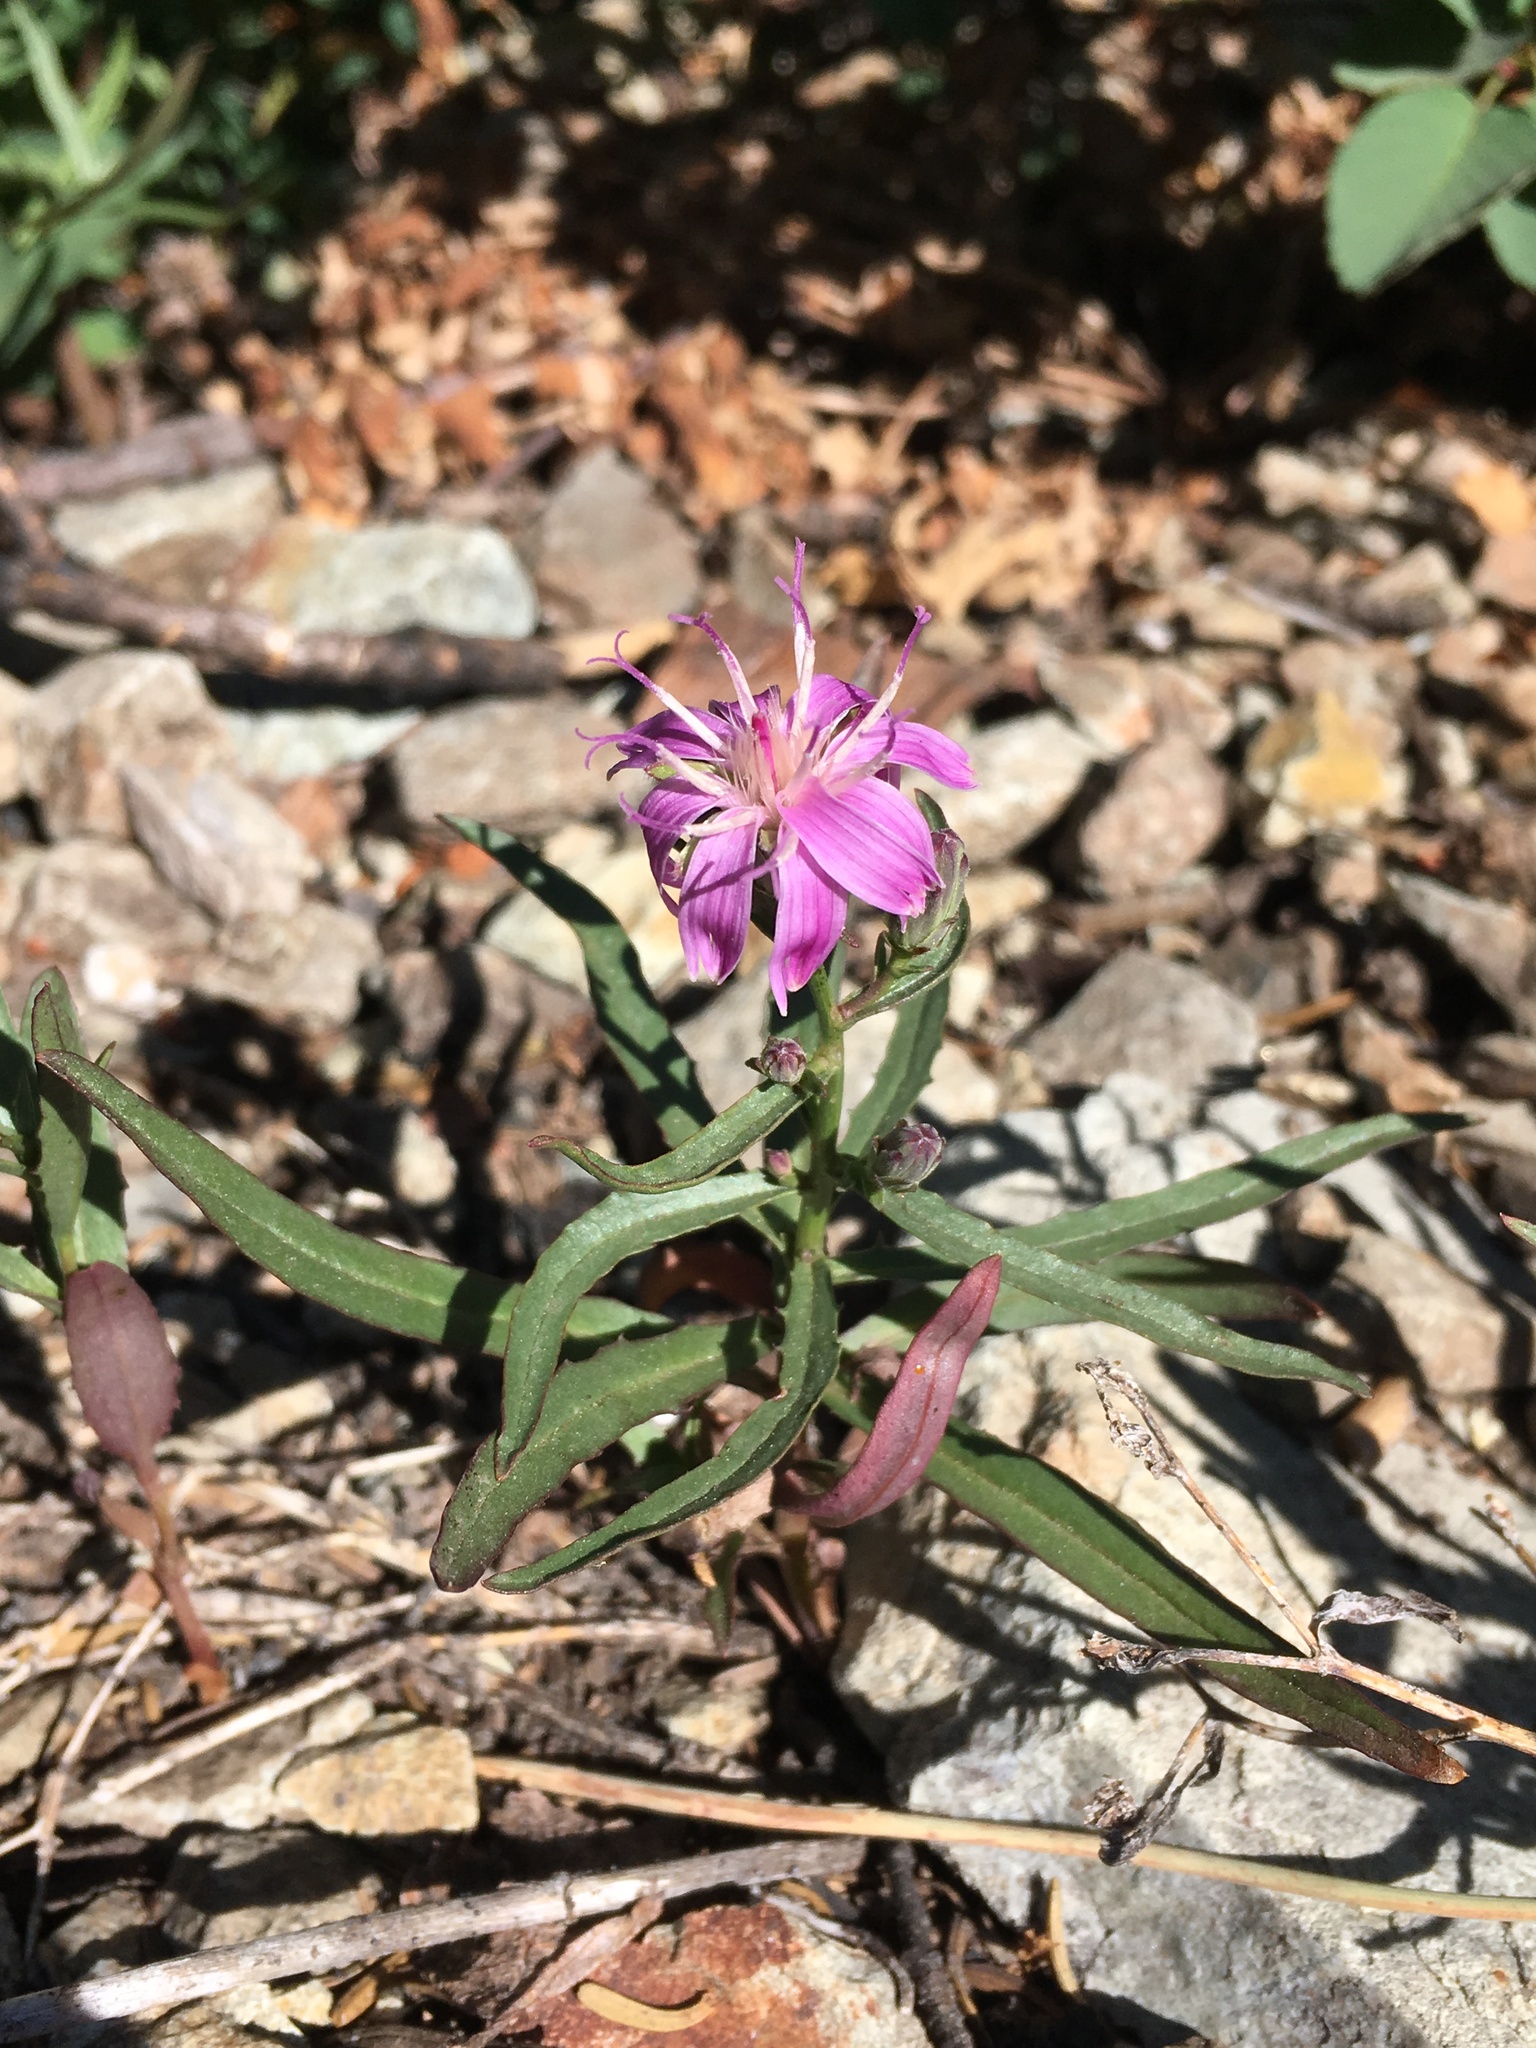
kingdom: Plantae
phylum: Tracheophyta
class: Magnoliopsida
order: Asterales
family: Asteraceae
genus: Stephanomeria
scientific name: Stephanomeria lactucina
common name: Large-flowered wirelettuce
